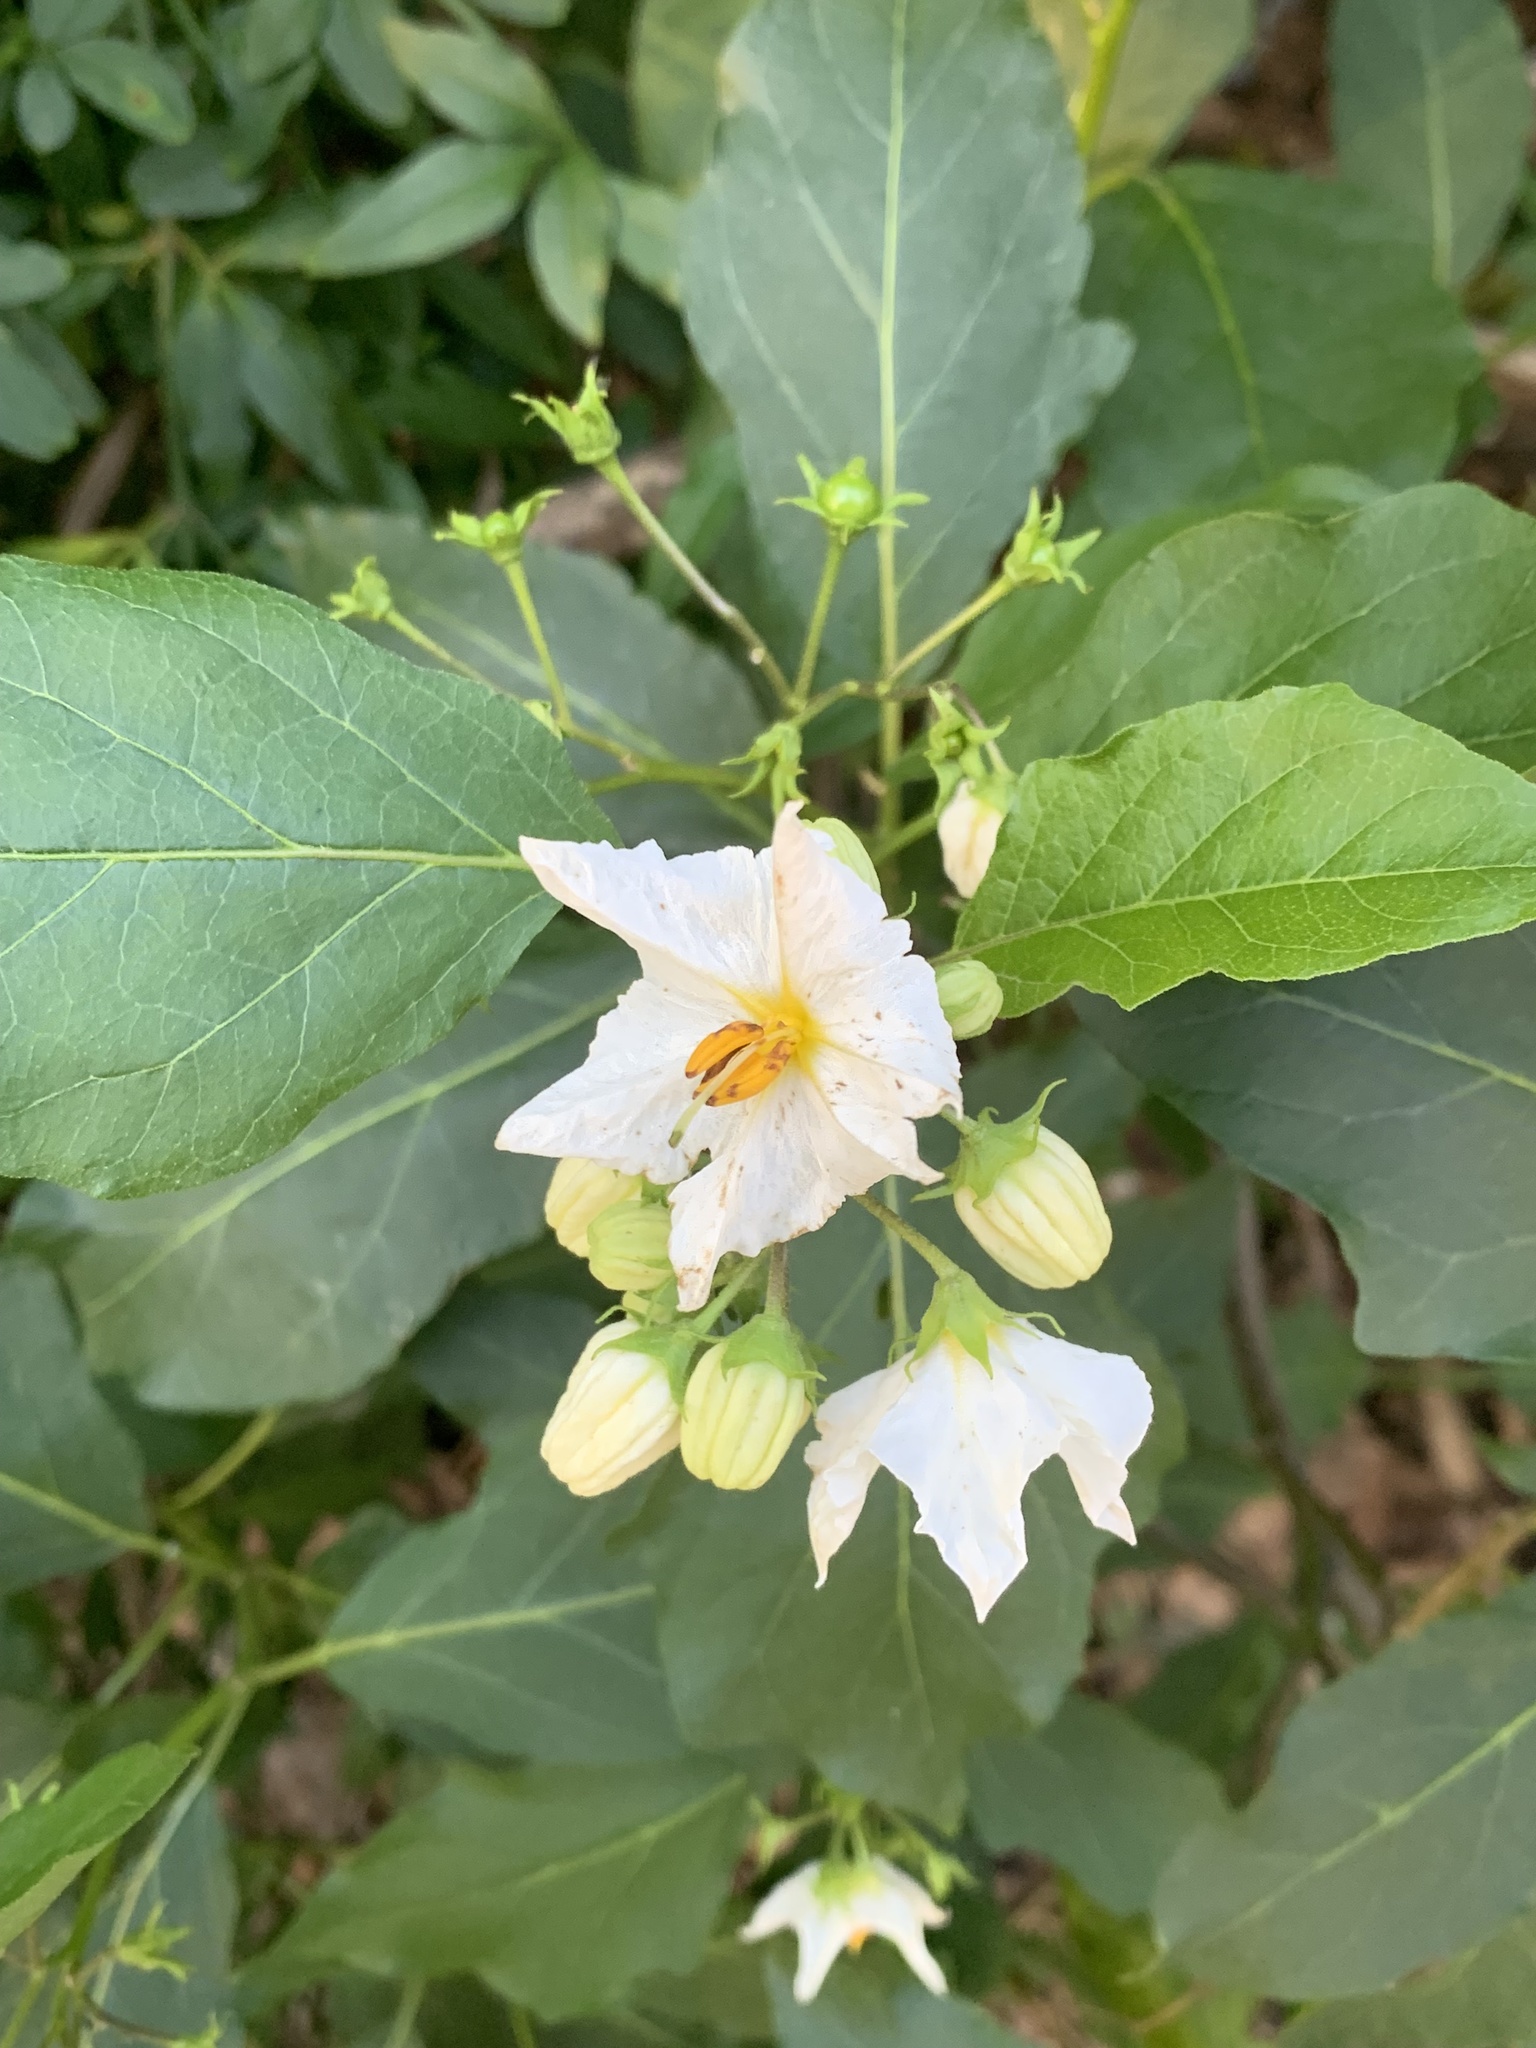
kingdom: Plantae
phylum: Tracheophyta
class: Magnoliopsida
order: Solanales
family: Solanaceae
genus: Solanum
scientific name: Solanum bonariense
